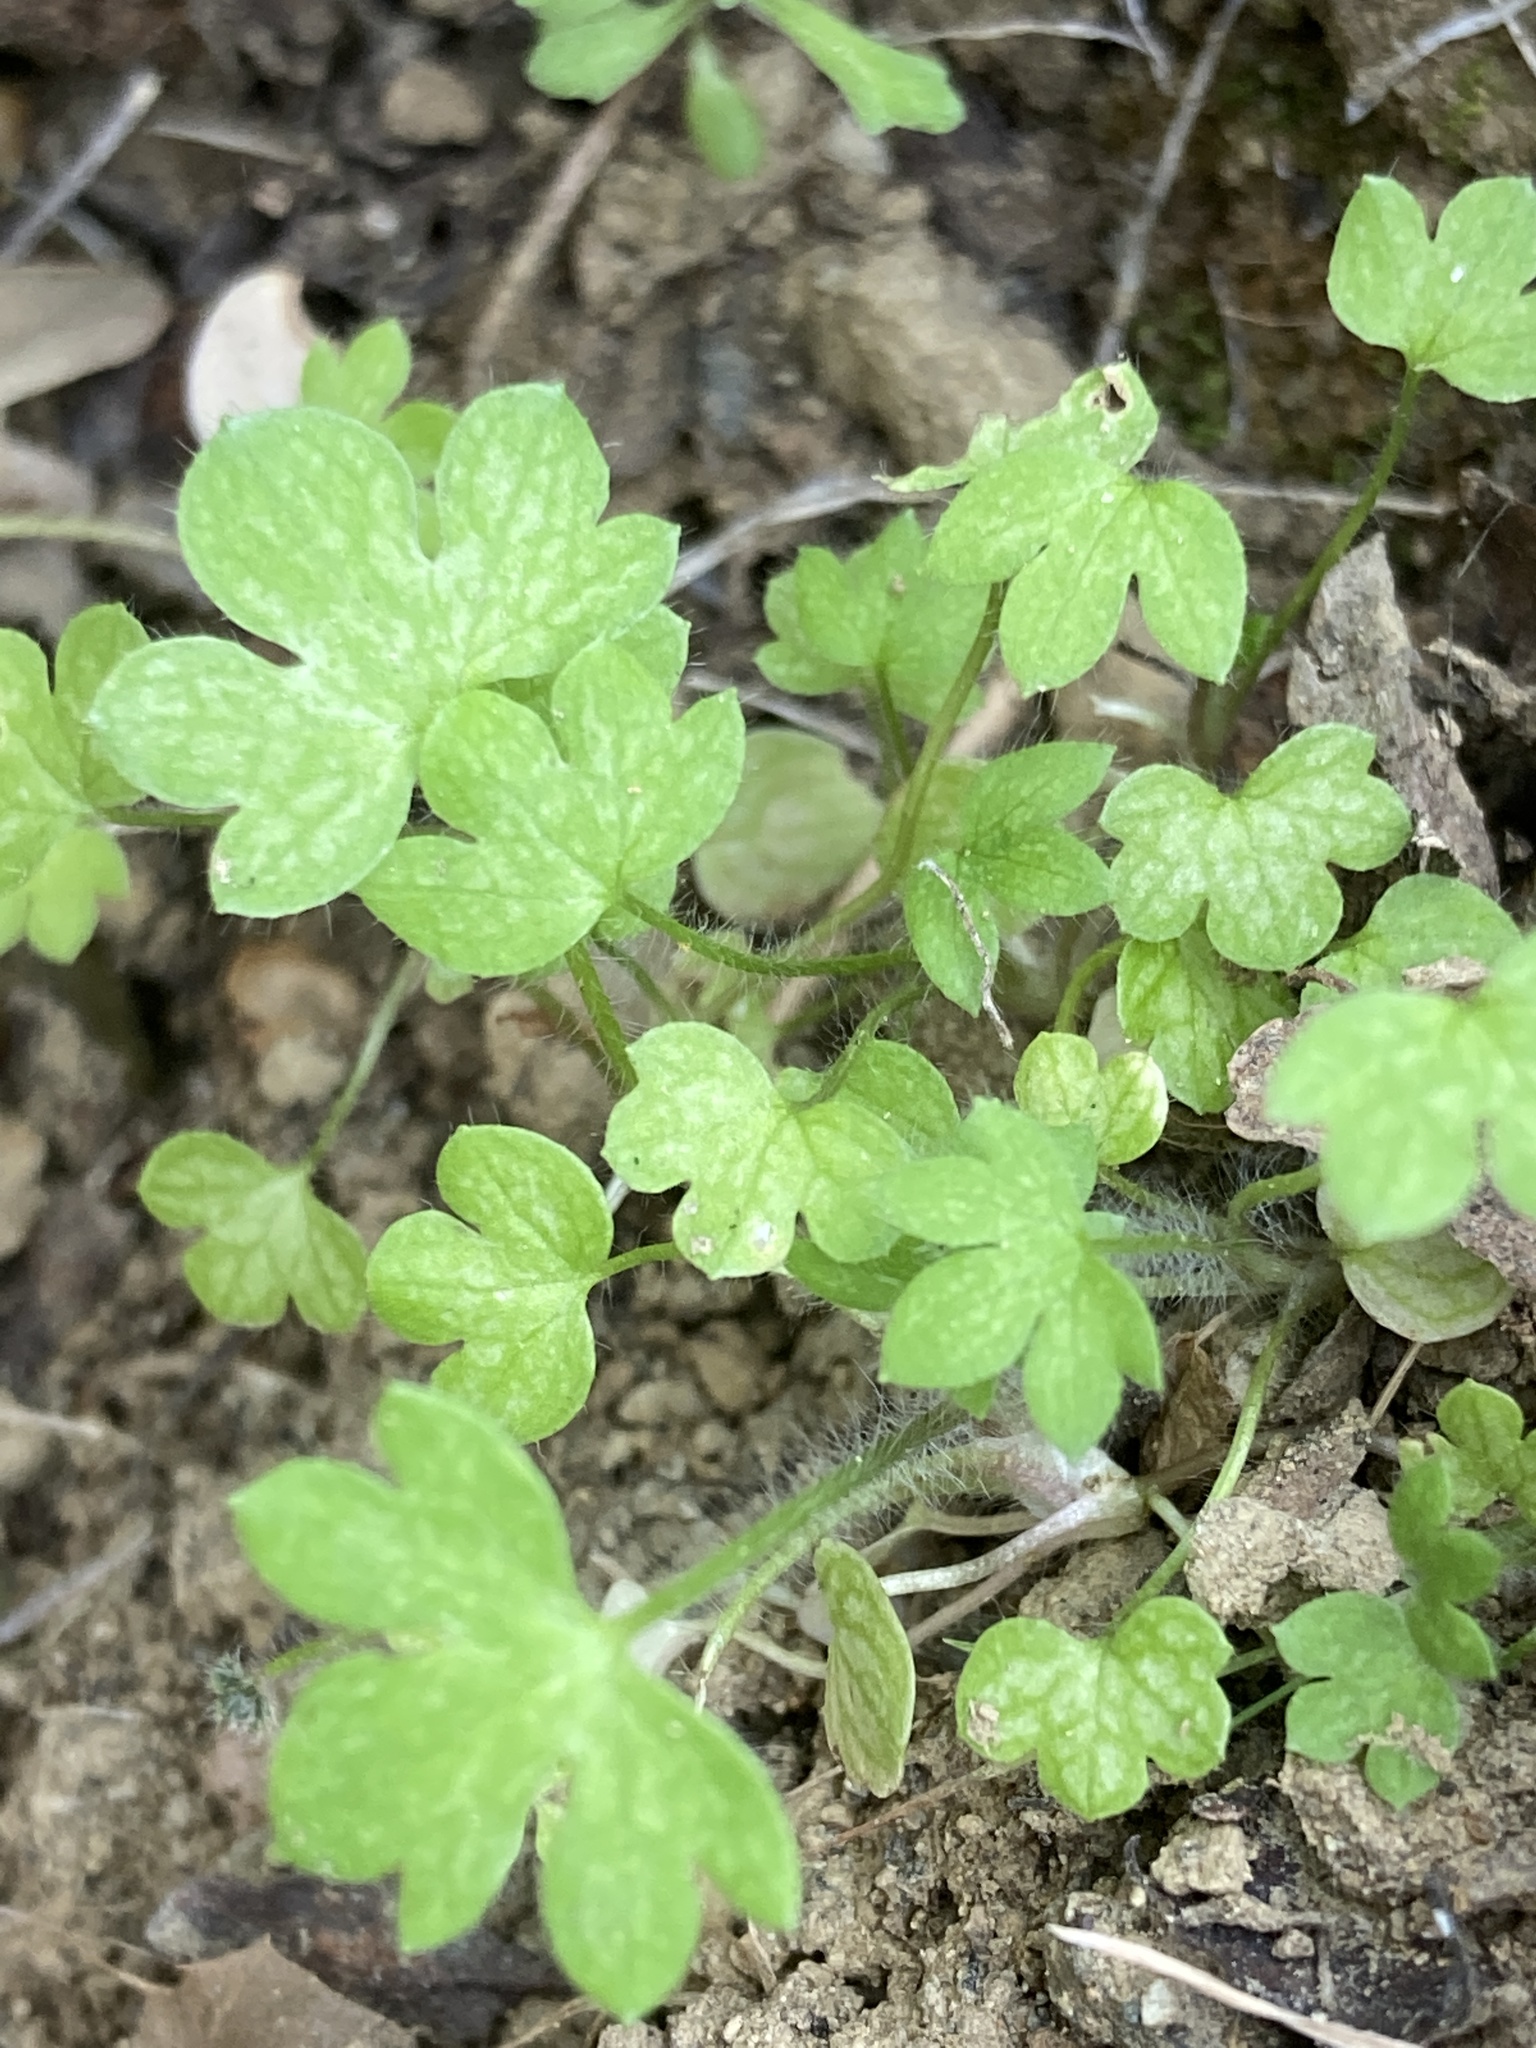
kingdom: Plantae
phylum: Tracheophyta
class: Magnoliopsida
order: Apiales
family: Apiaceae
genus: Bowlesia
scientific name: Bowlesia incana
